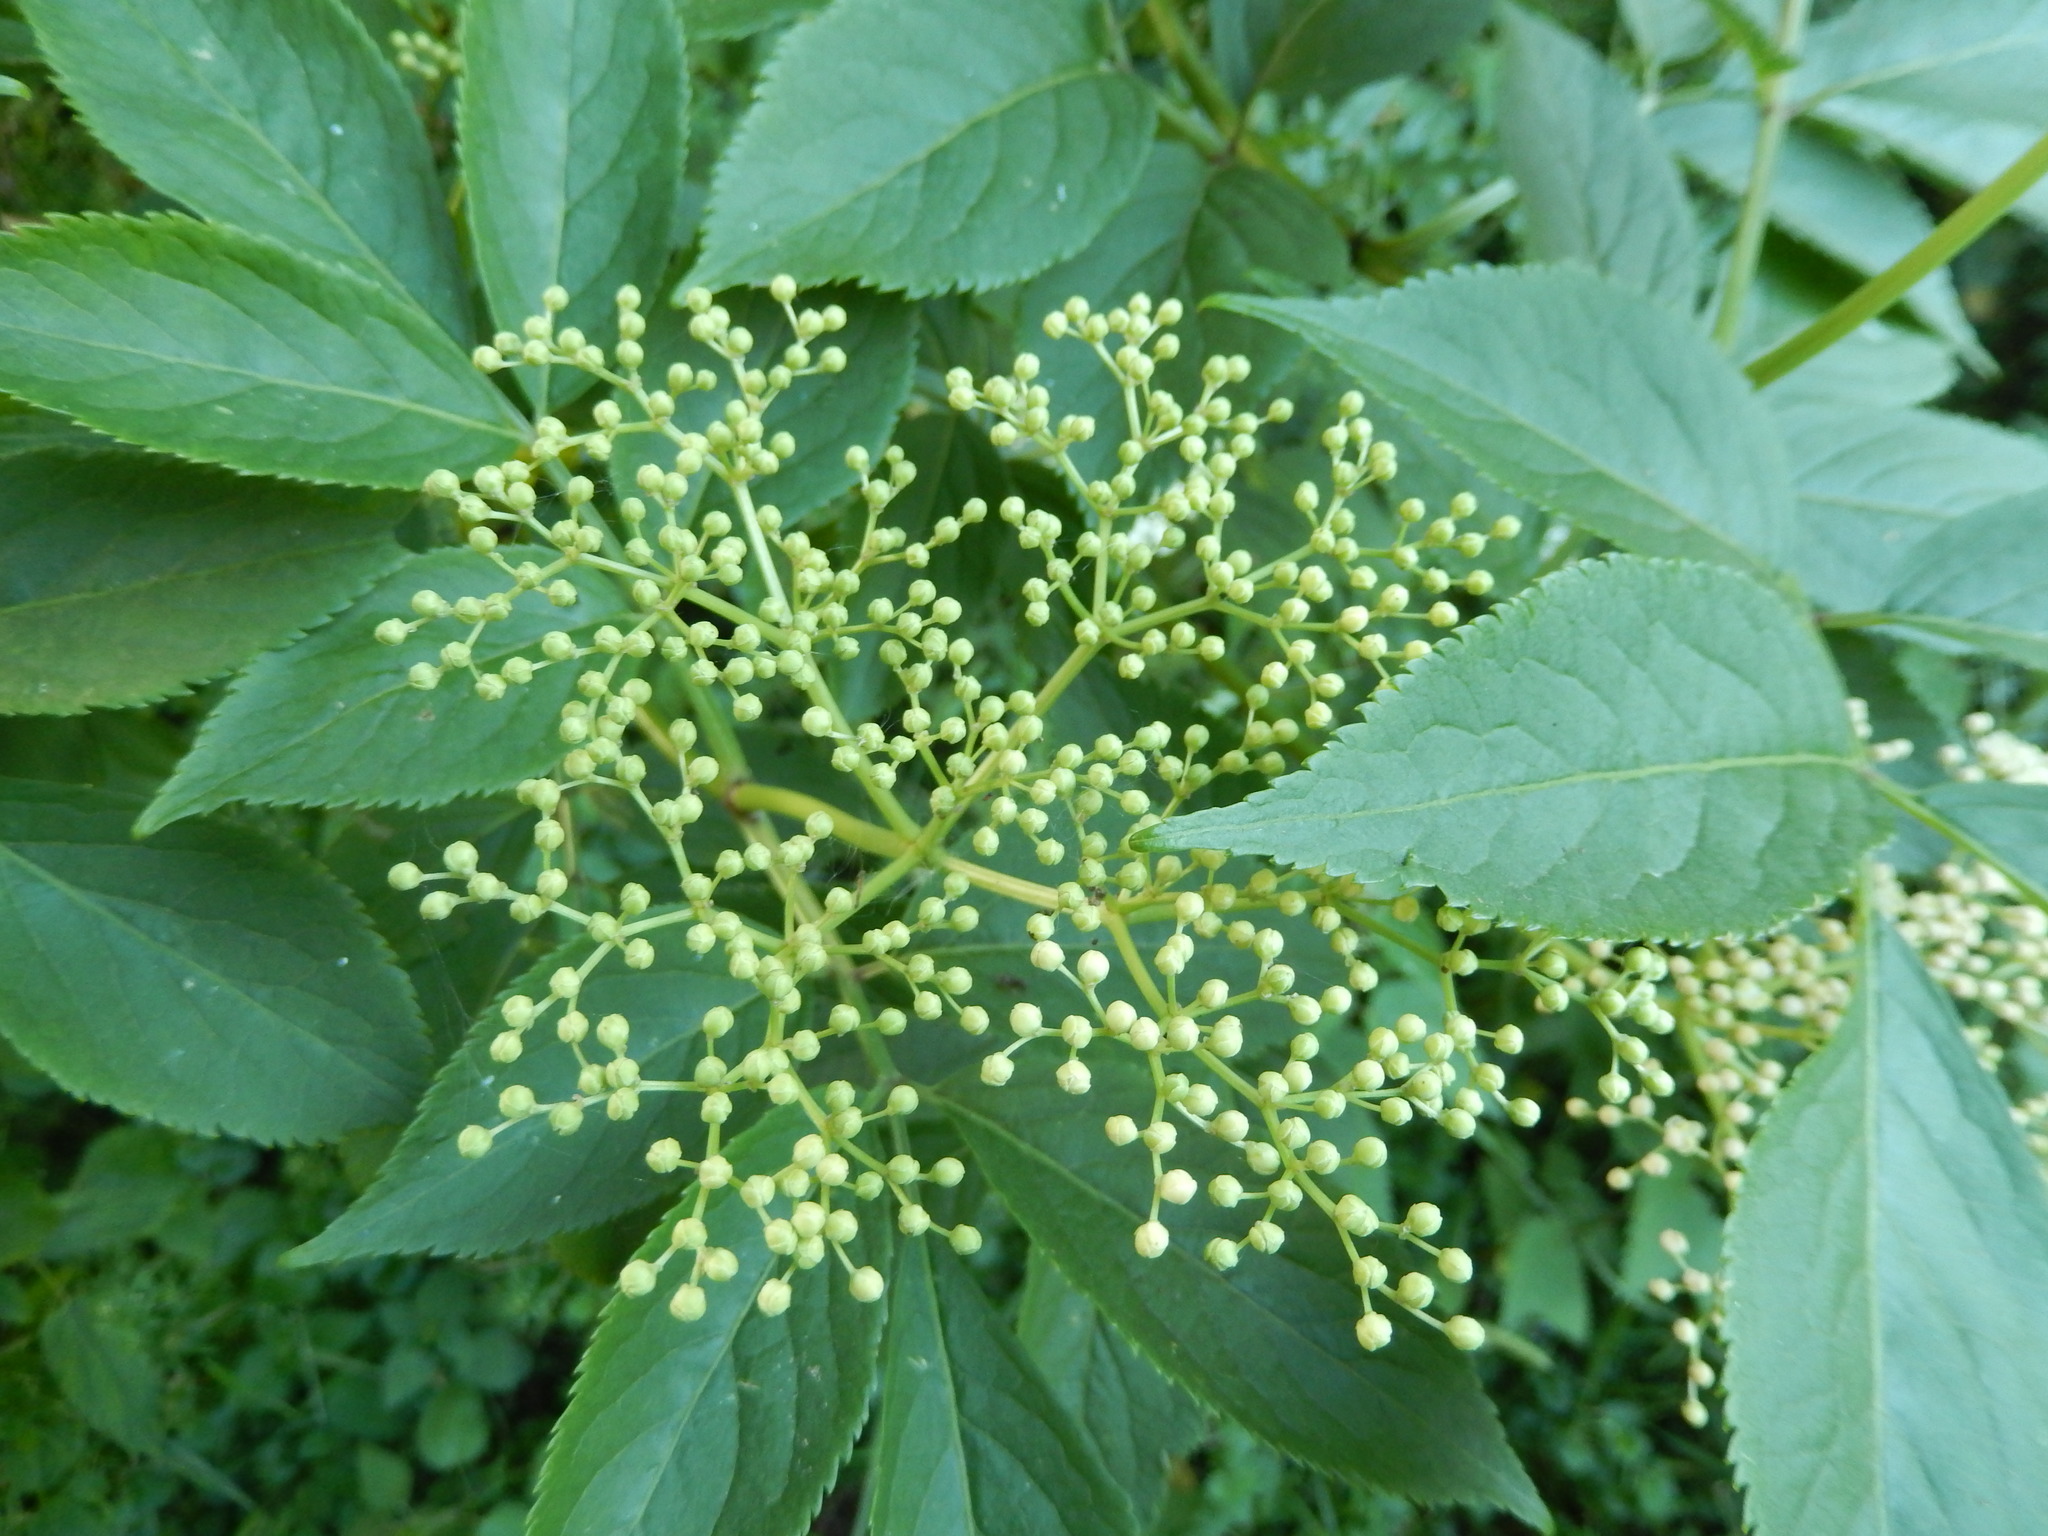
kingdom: Plantae
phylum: Tracheophyta
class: Magnoliopsida
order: Dipsacales
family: Viburnaceae
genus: Sambucus
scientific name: Sambucus nigra
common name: Elder
